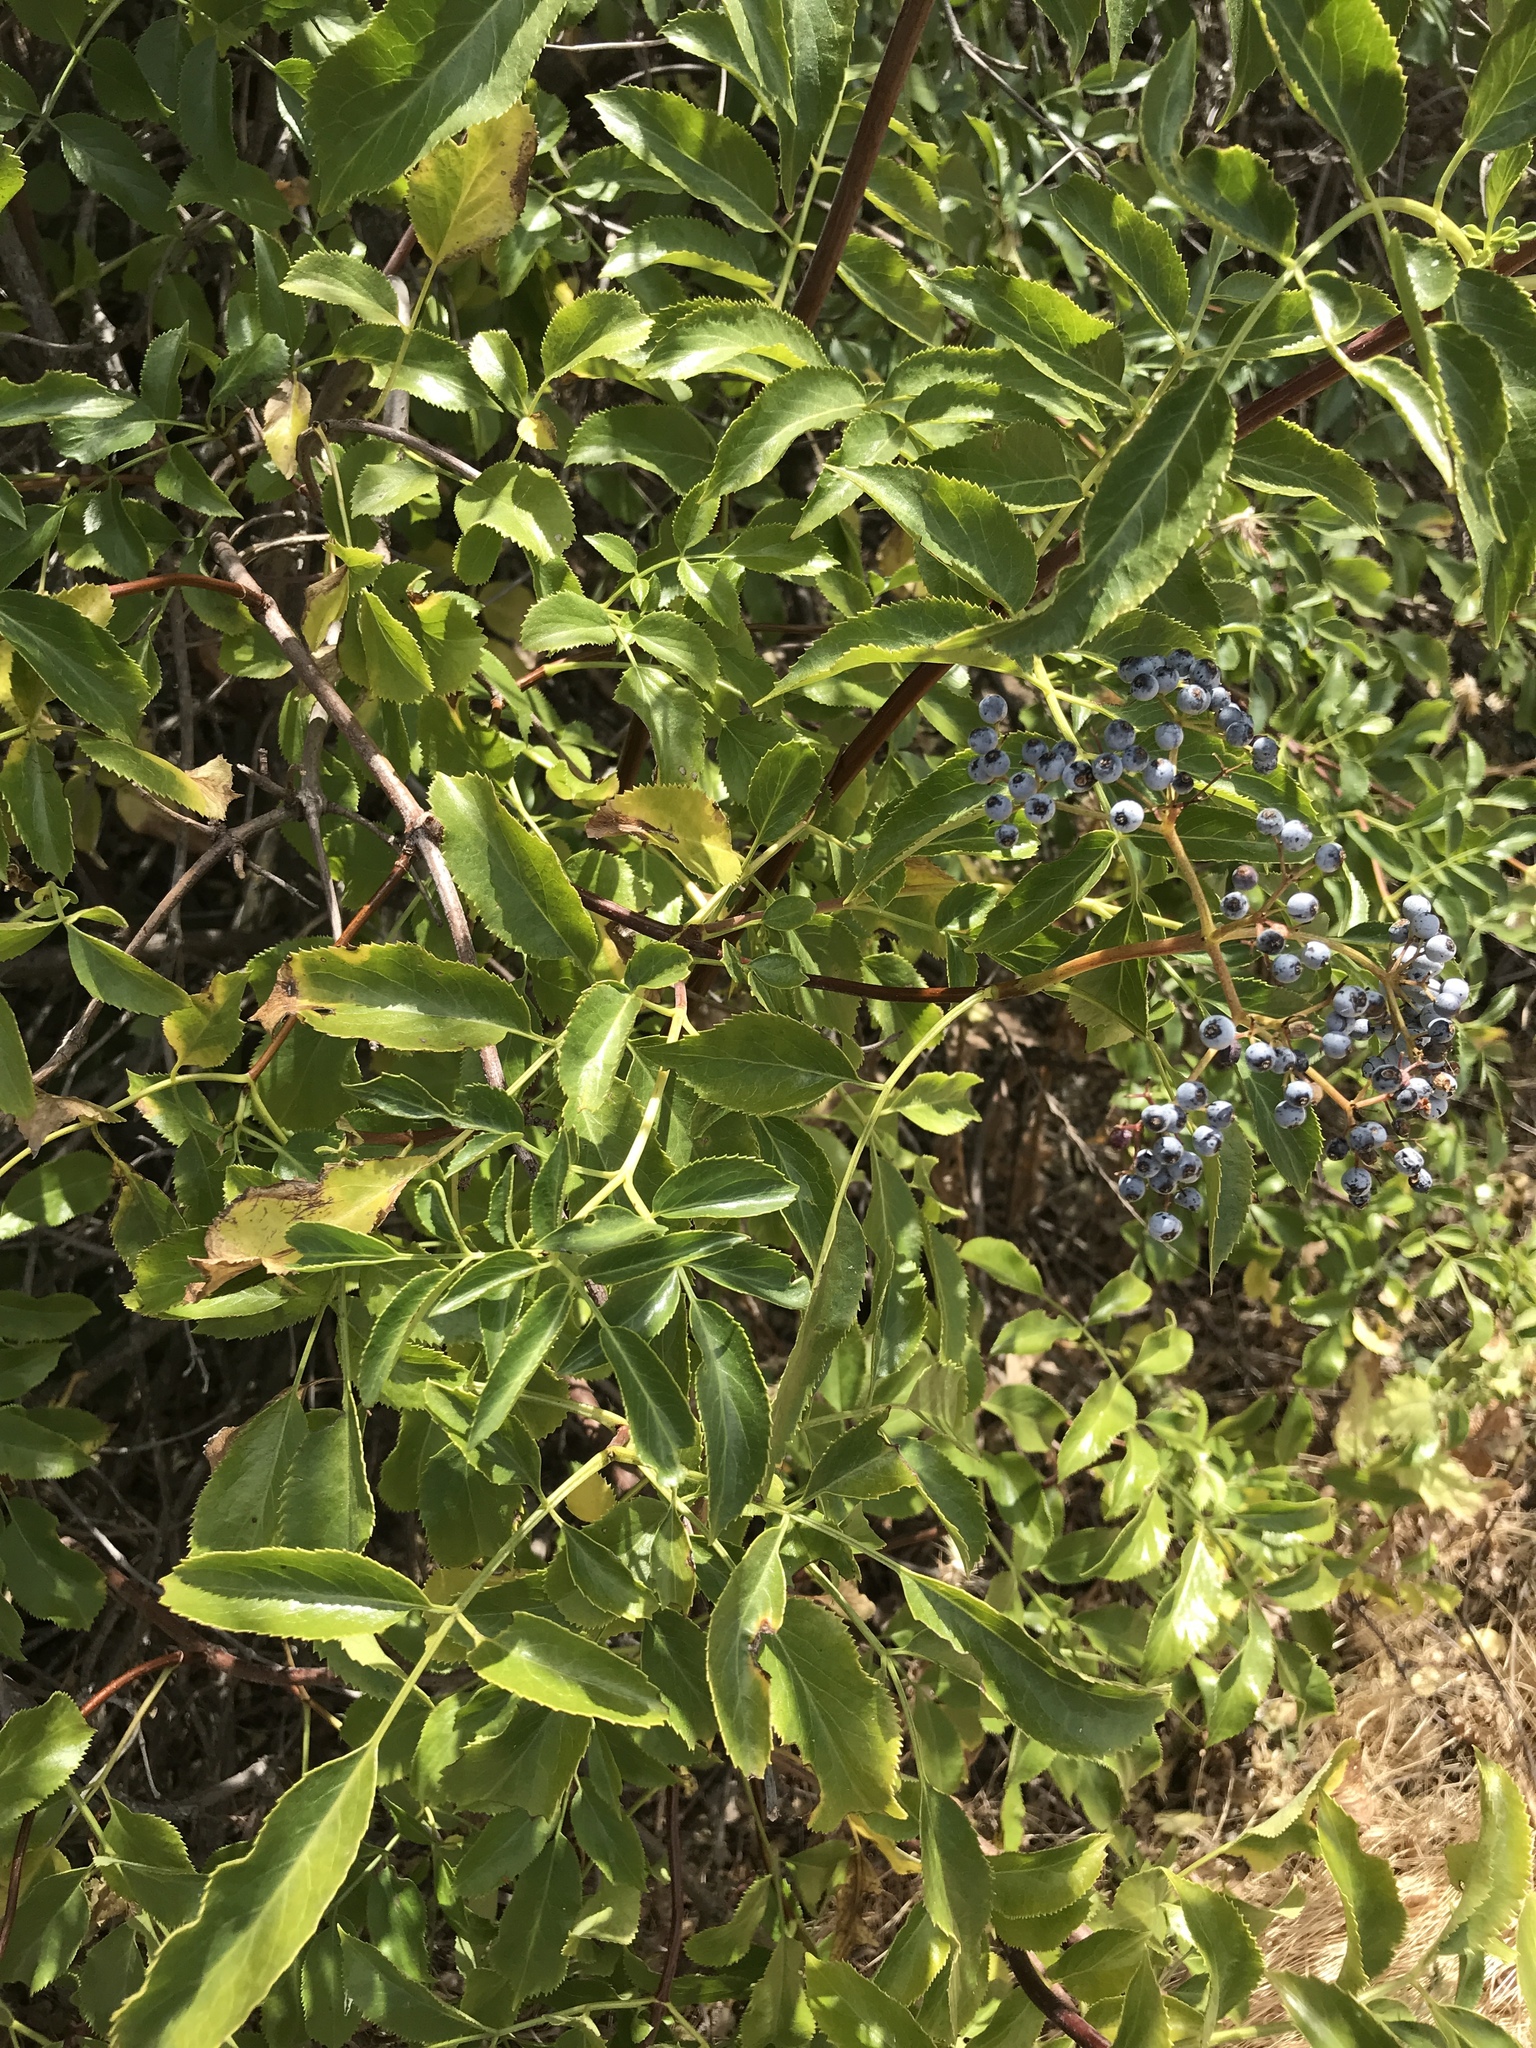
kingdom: Plantae
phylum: Tracheophyta
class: Magnoliopsida
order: Dipsacales
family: Viburnaceae
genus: Sambucus
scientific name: Sambucus cerulea
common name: Blue elder
